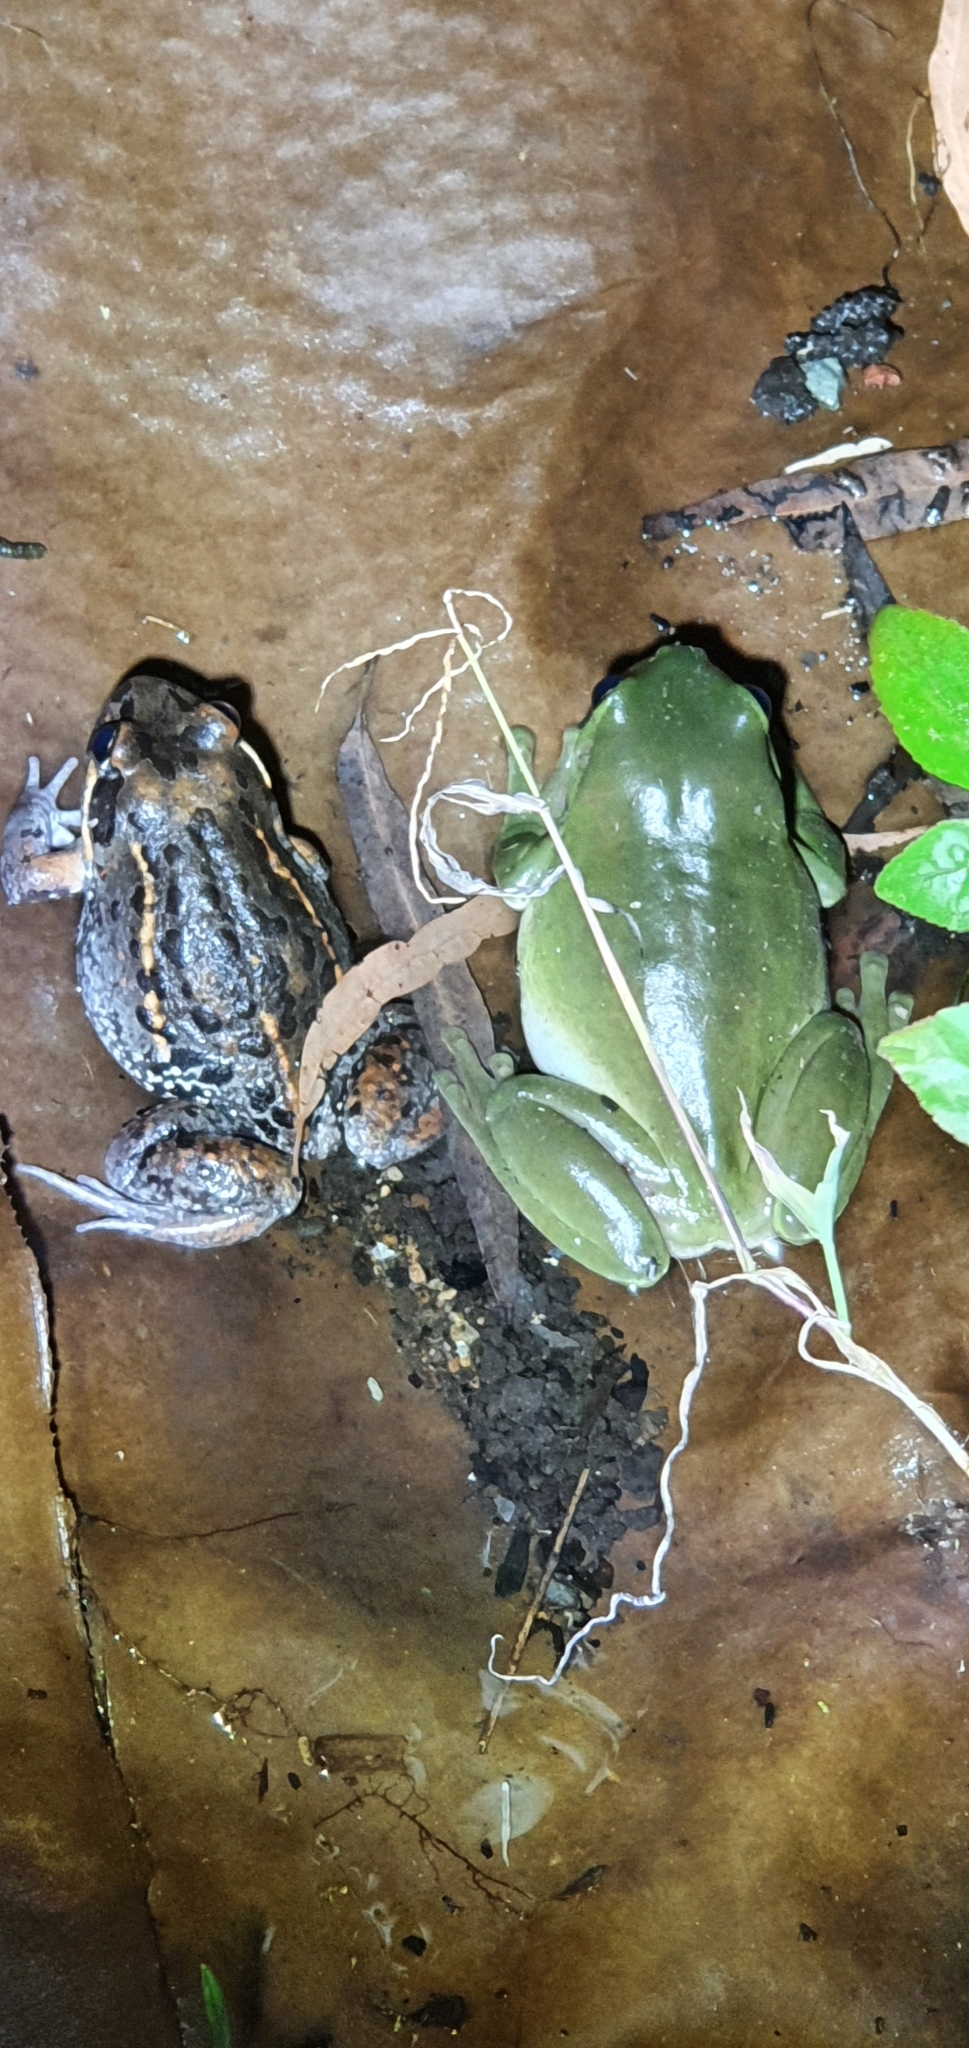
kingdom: Animalia
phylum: Chordata
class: Amphibia
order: Anura
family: Limnodynastidae
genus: Limnodynastes
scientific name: Limnodynastes salmini
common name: Salmon-striped frog
